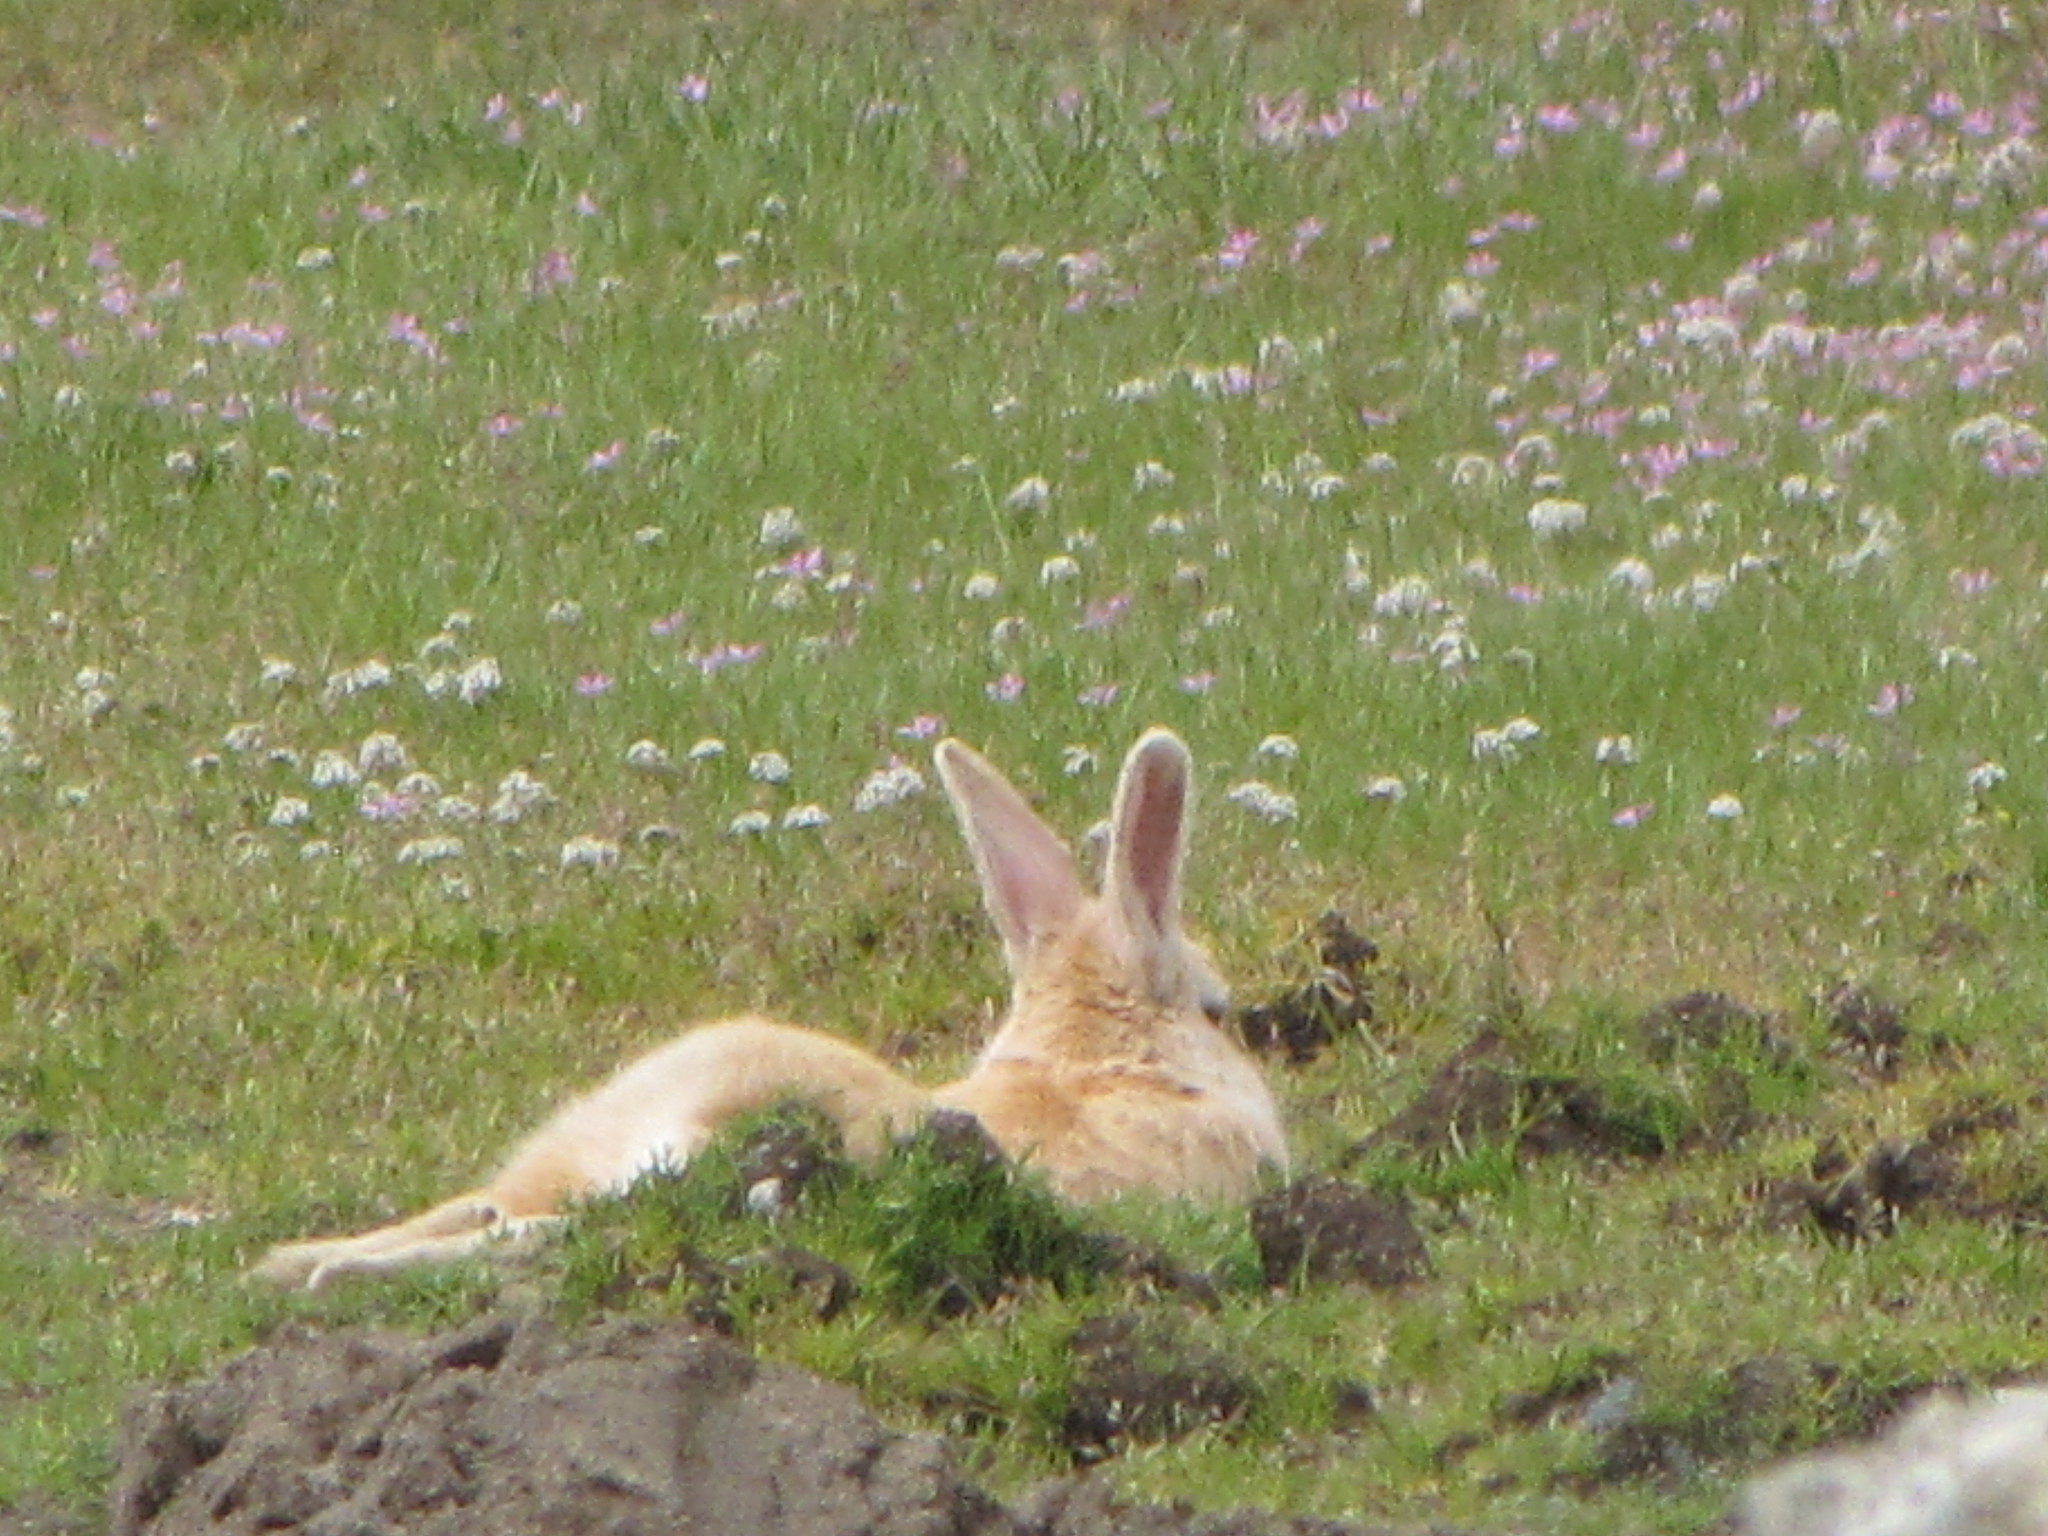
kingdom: Animalia
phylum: Chordata
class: Mammalia
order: Lagomorpha
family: Leporidae
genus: Oryctolagus
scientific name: Oryctolagus cuniculus
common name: European rabbit
